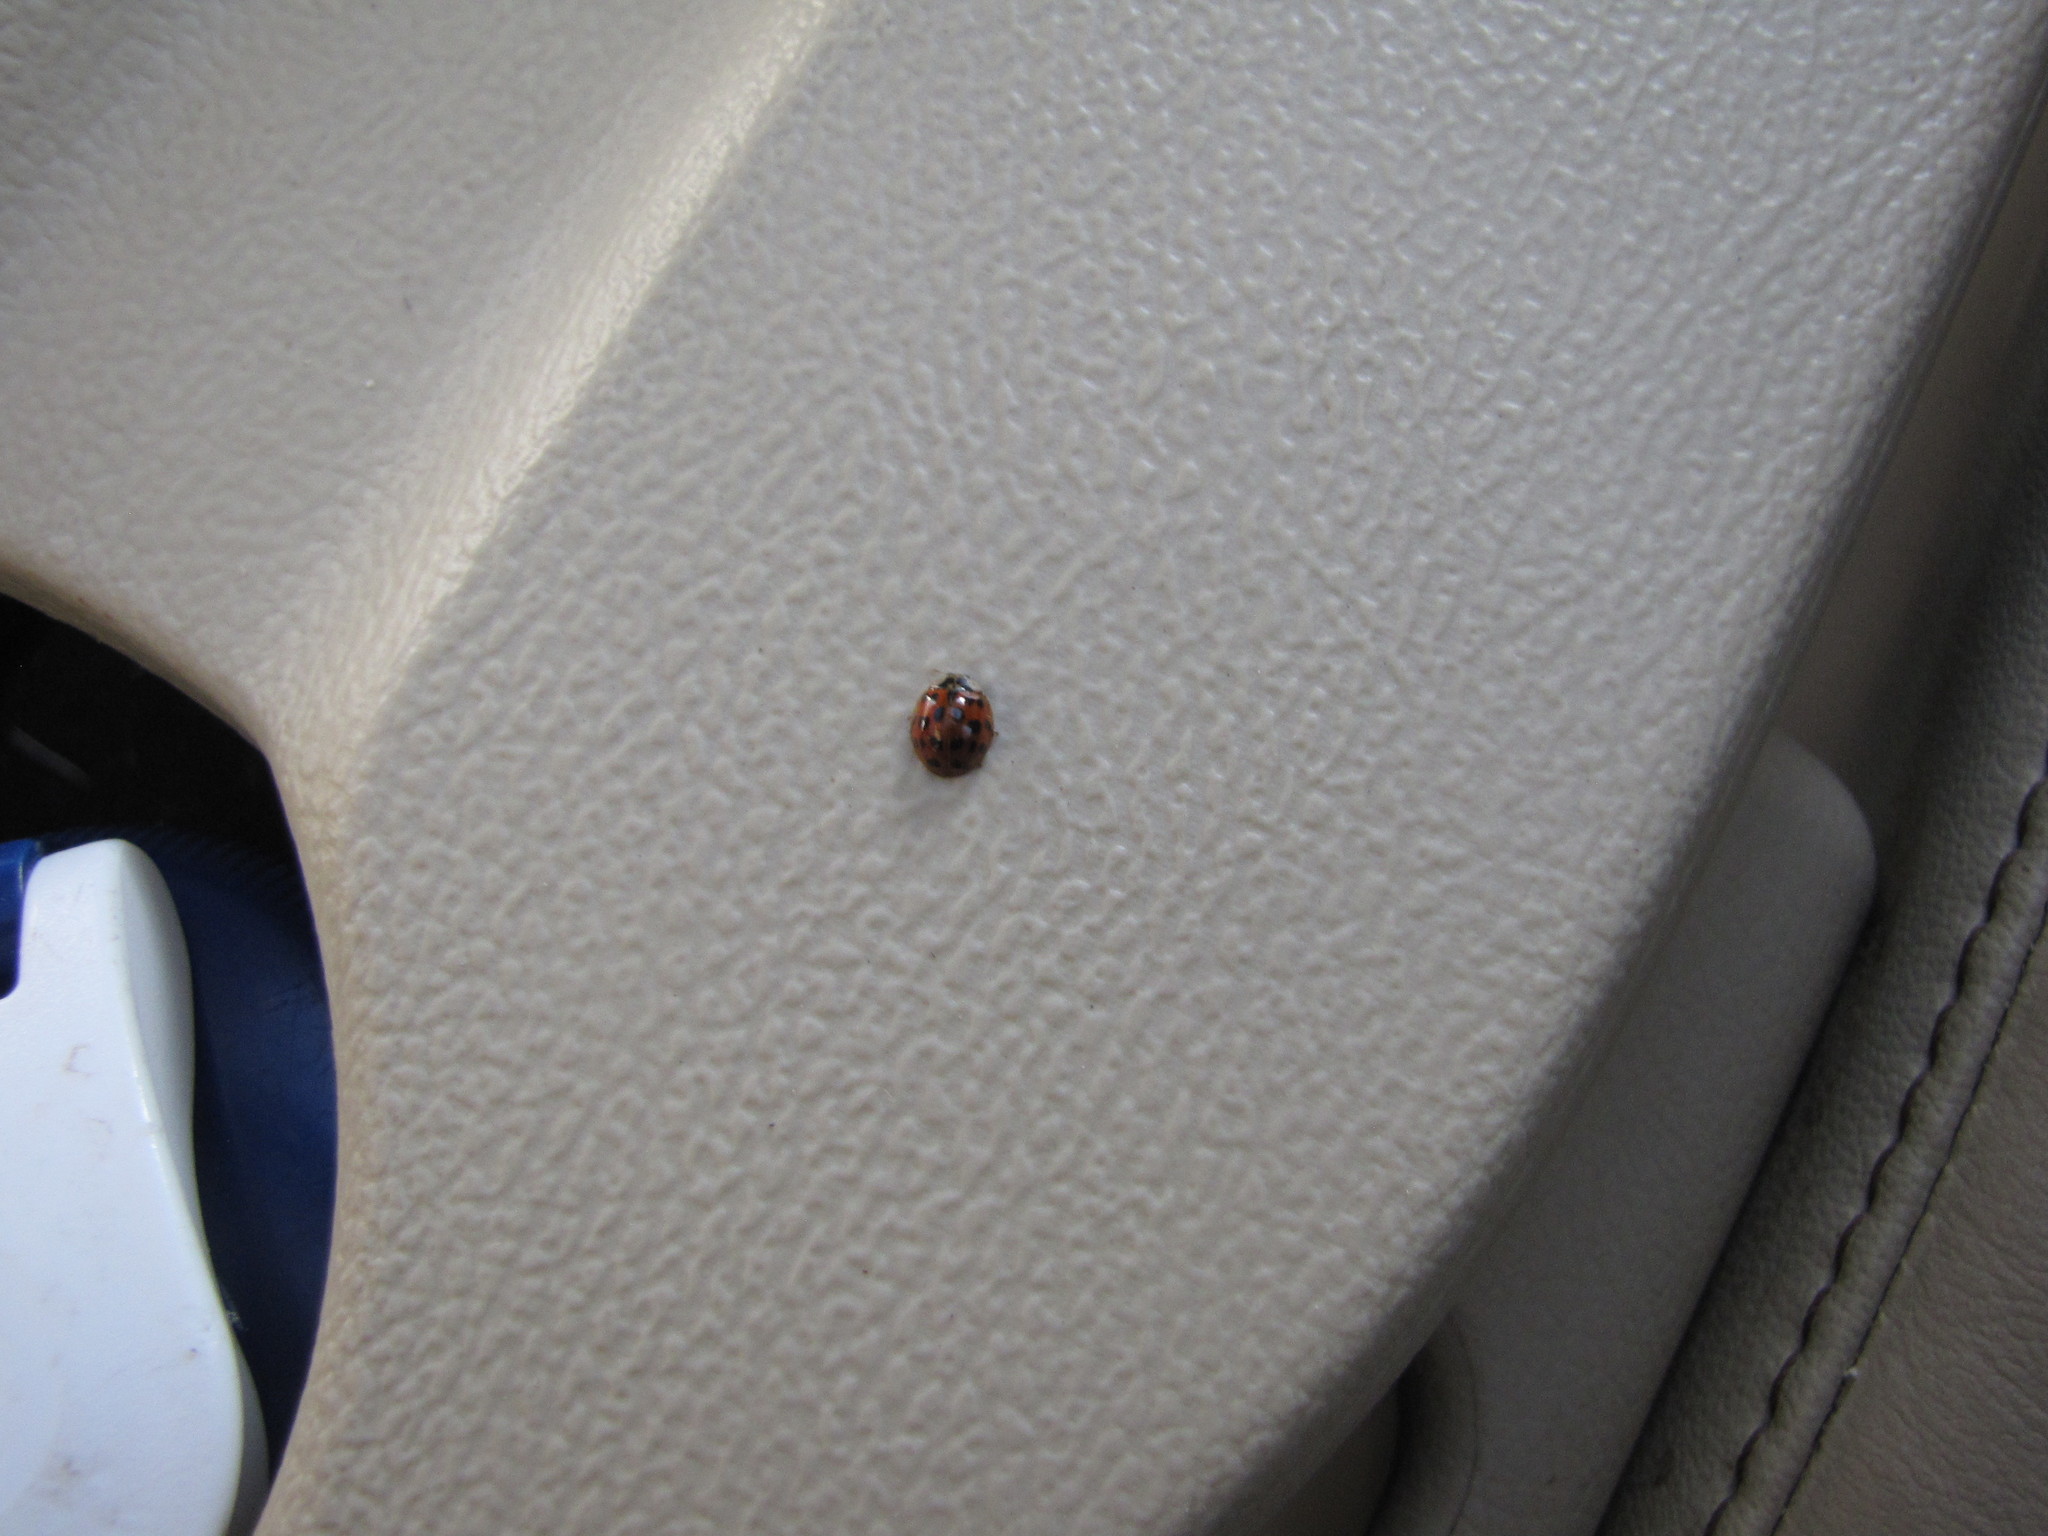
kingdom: Animalia
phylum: Arthropoda
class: Insecta
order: Coleoptera
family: Coccinellidae
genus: Harmonia
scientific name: Harmonia axyridis
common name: Harlequin ladybird
